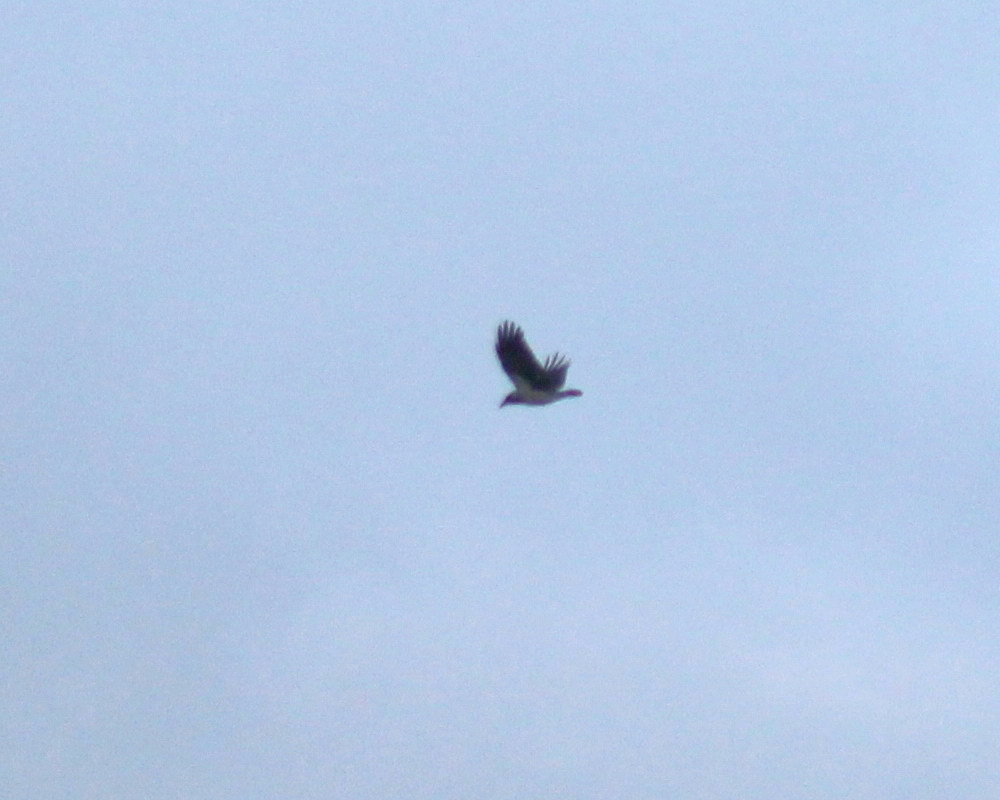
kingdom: Animalia
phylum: Chordata
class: Aves
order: Passeriformes
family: Corvidae
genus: Corvus
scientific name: Corvus cornix
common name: Hooded crow
